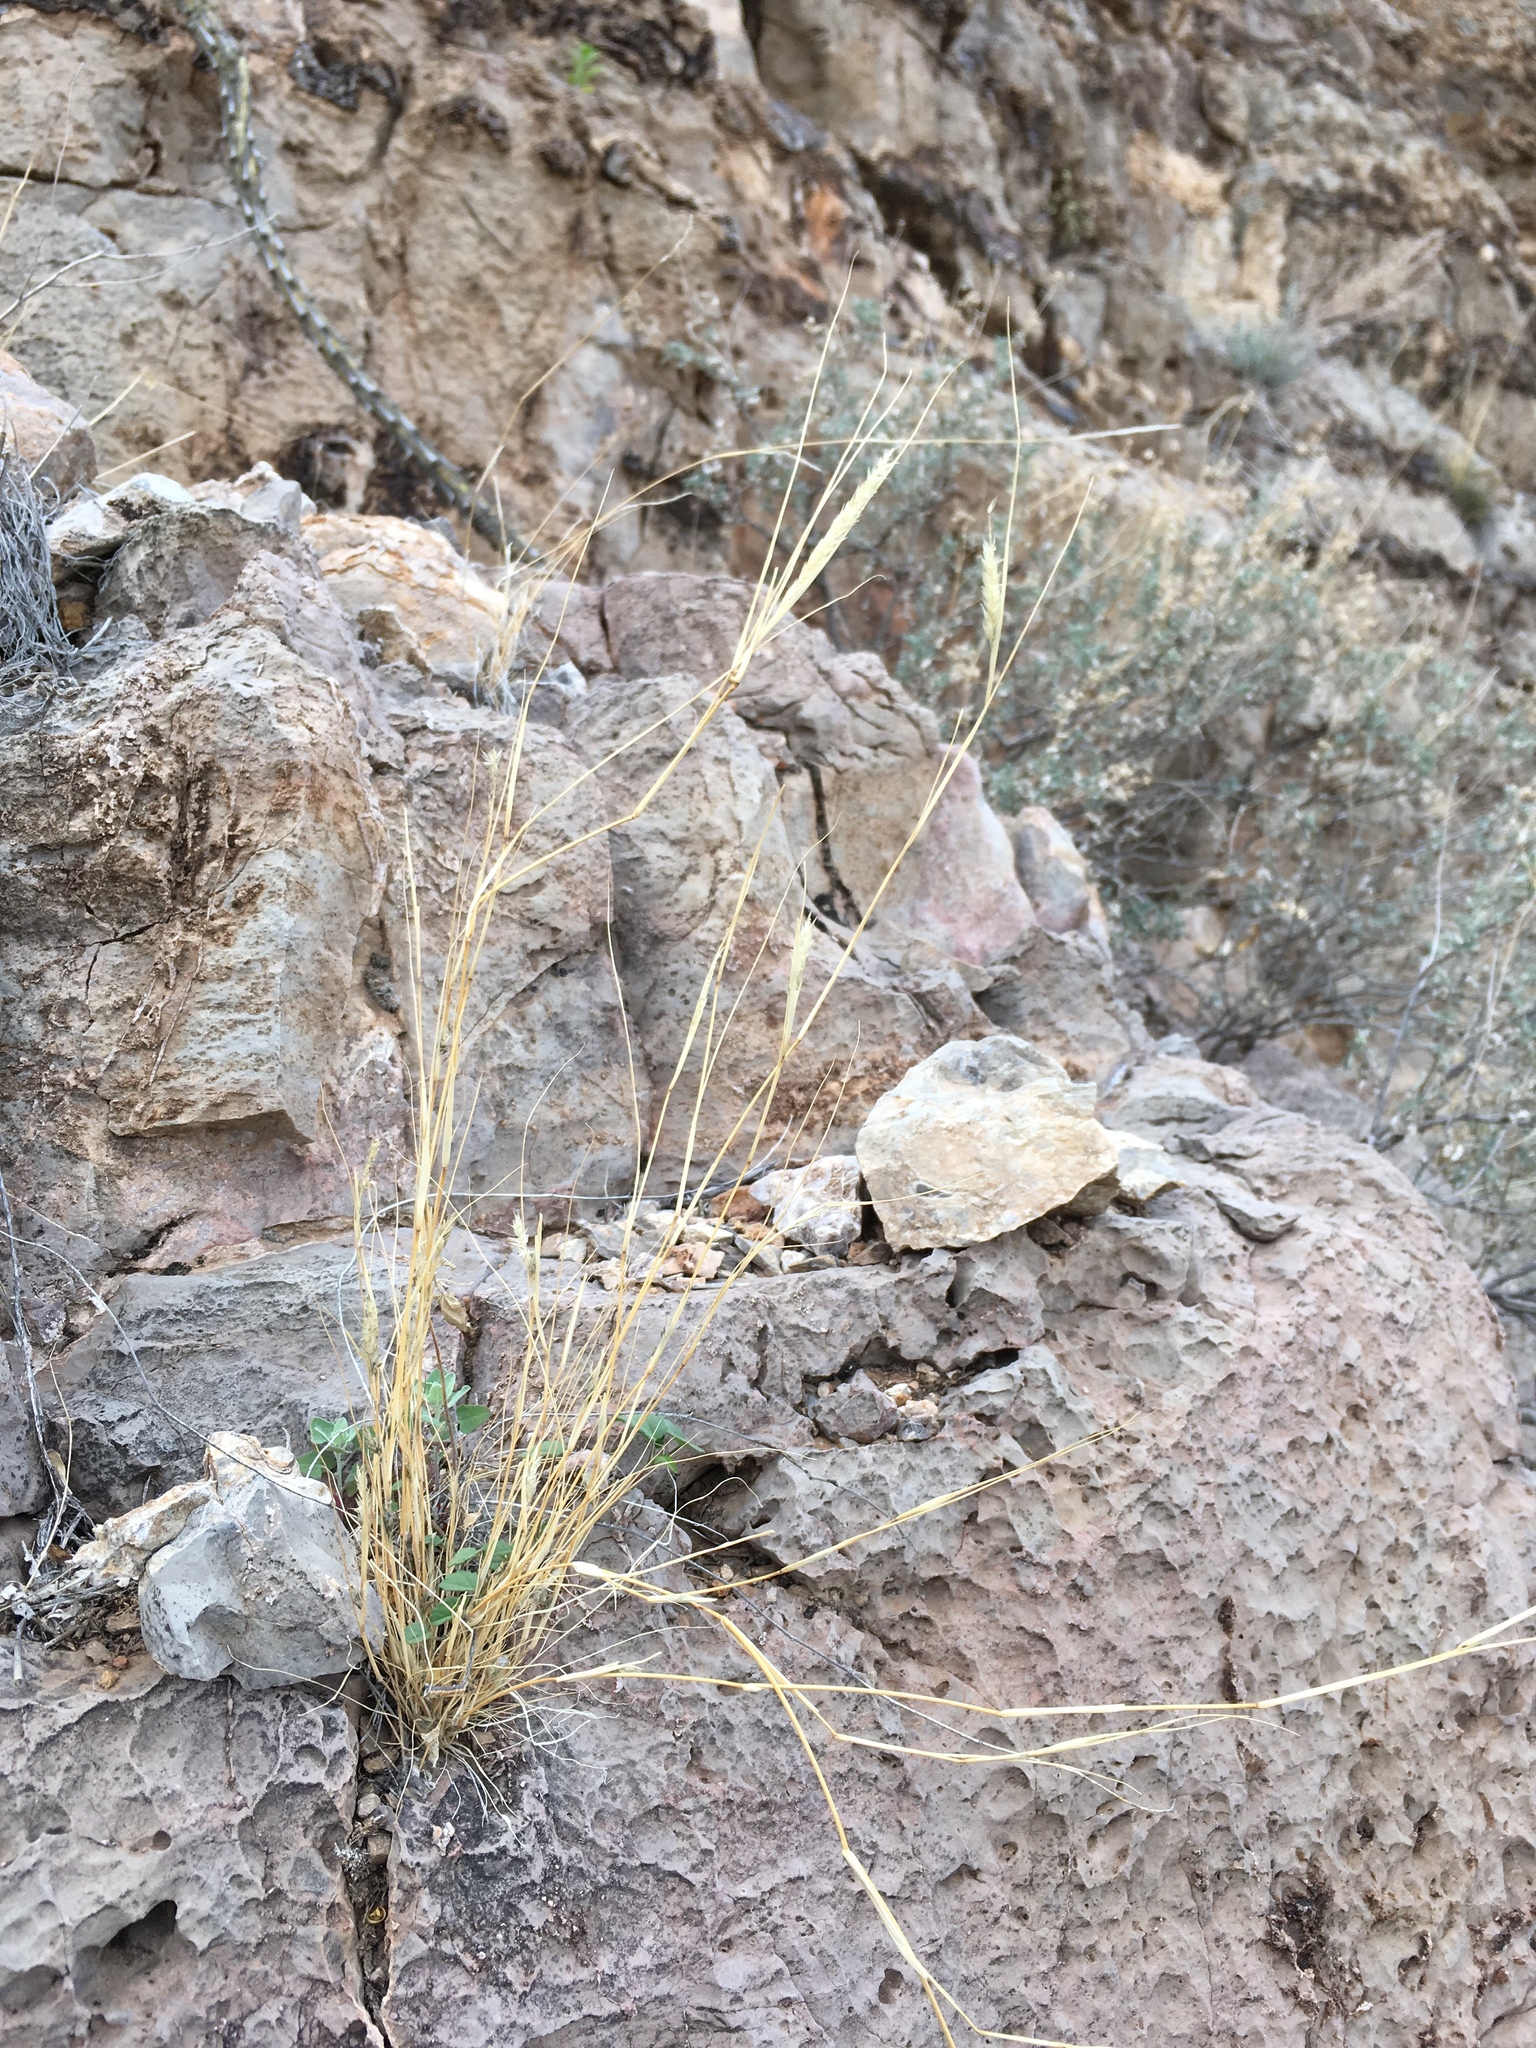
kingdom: Plantae
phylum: Tracheophyta
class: Liliopsida
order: Poales
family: Poaceae
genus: Enneapogon
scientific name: Enneapogon desvauxii
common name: Feather pappus grass
